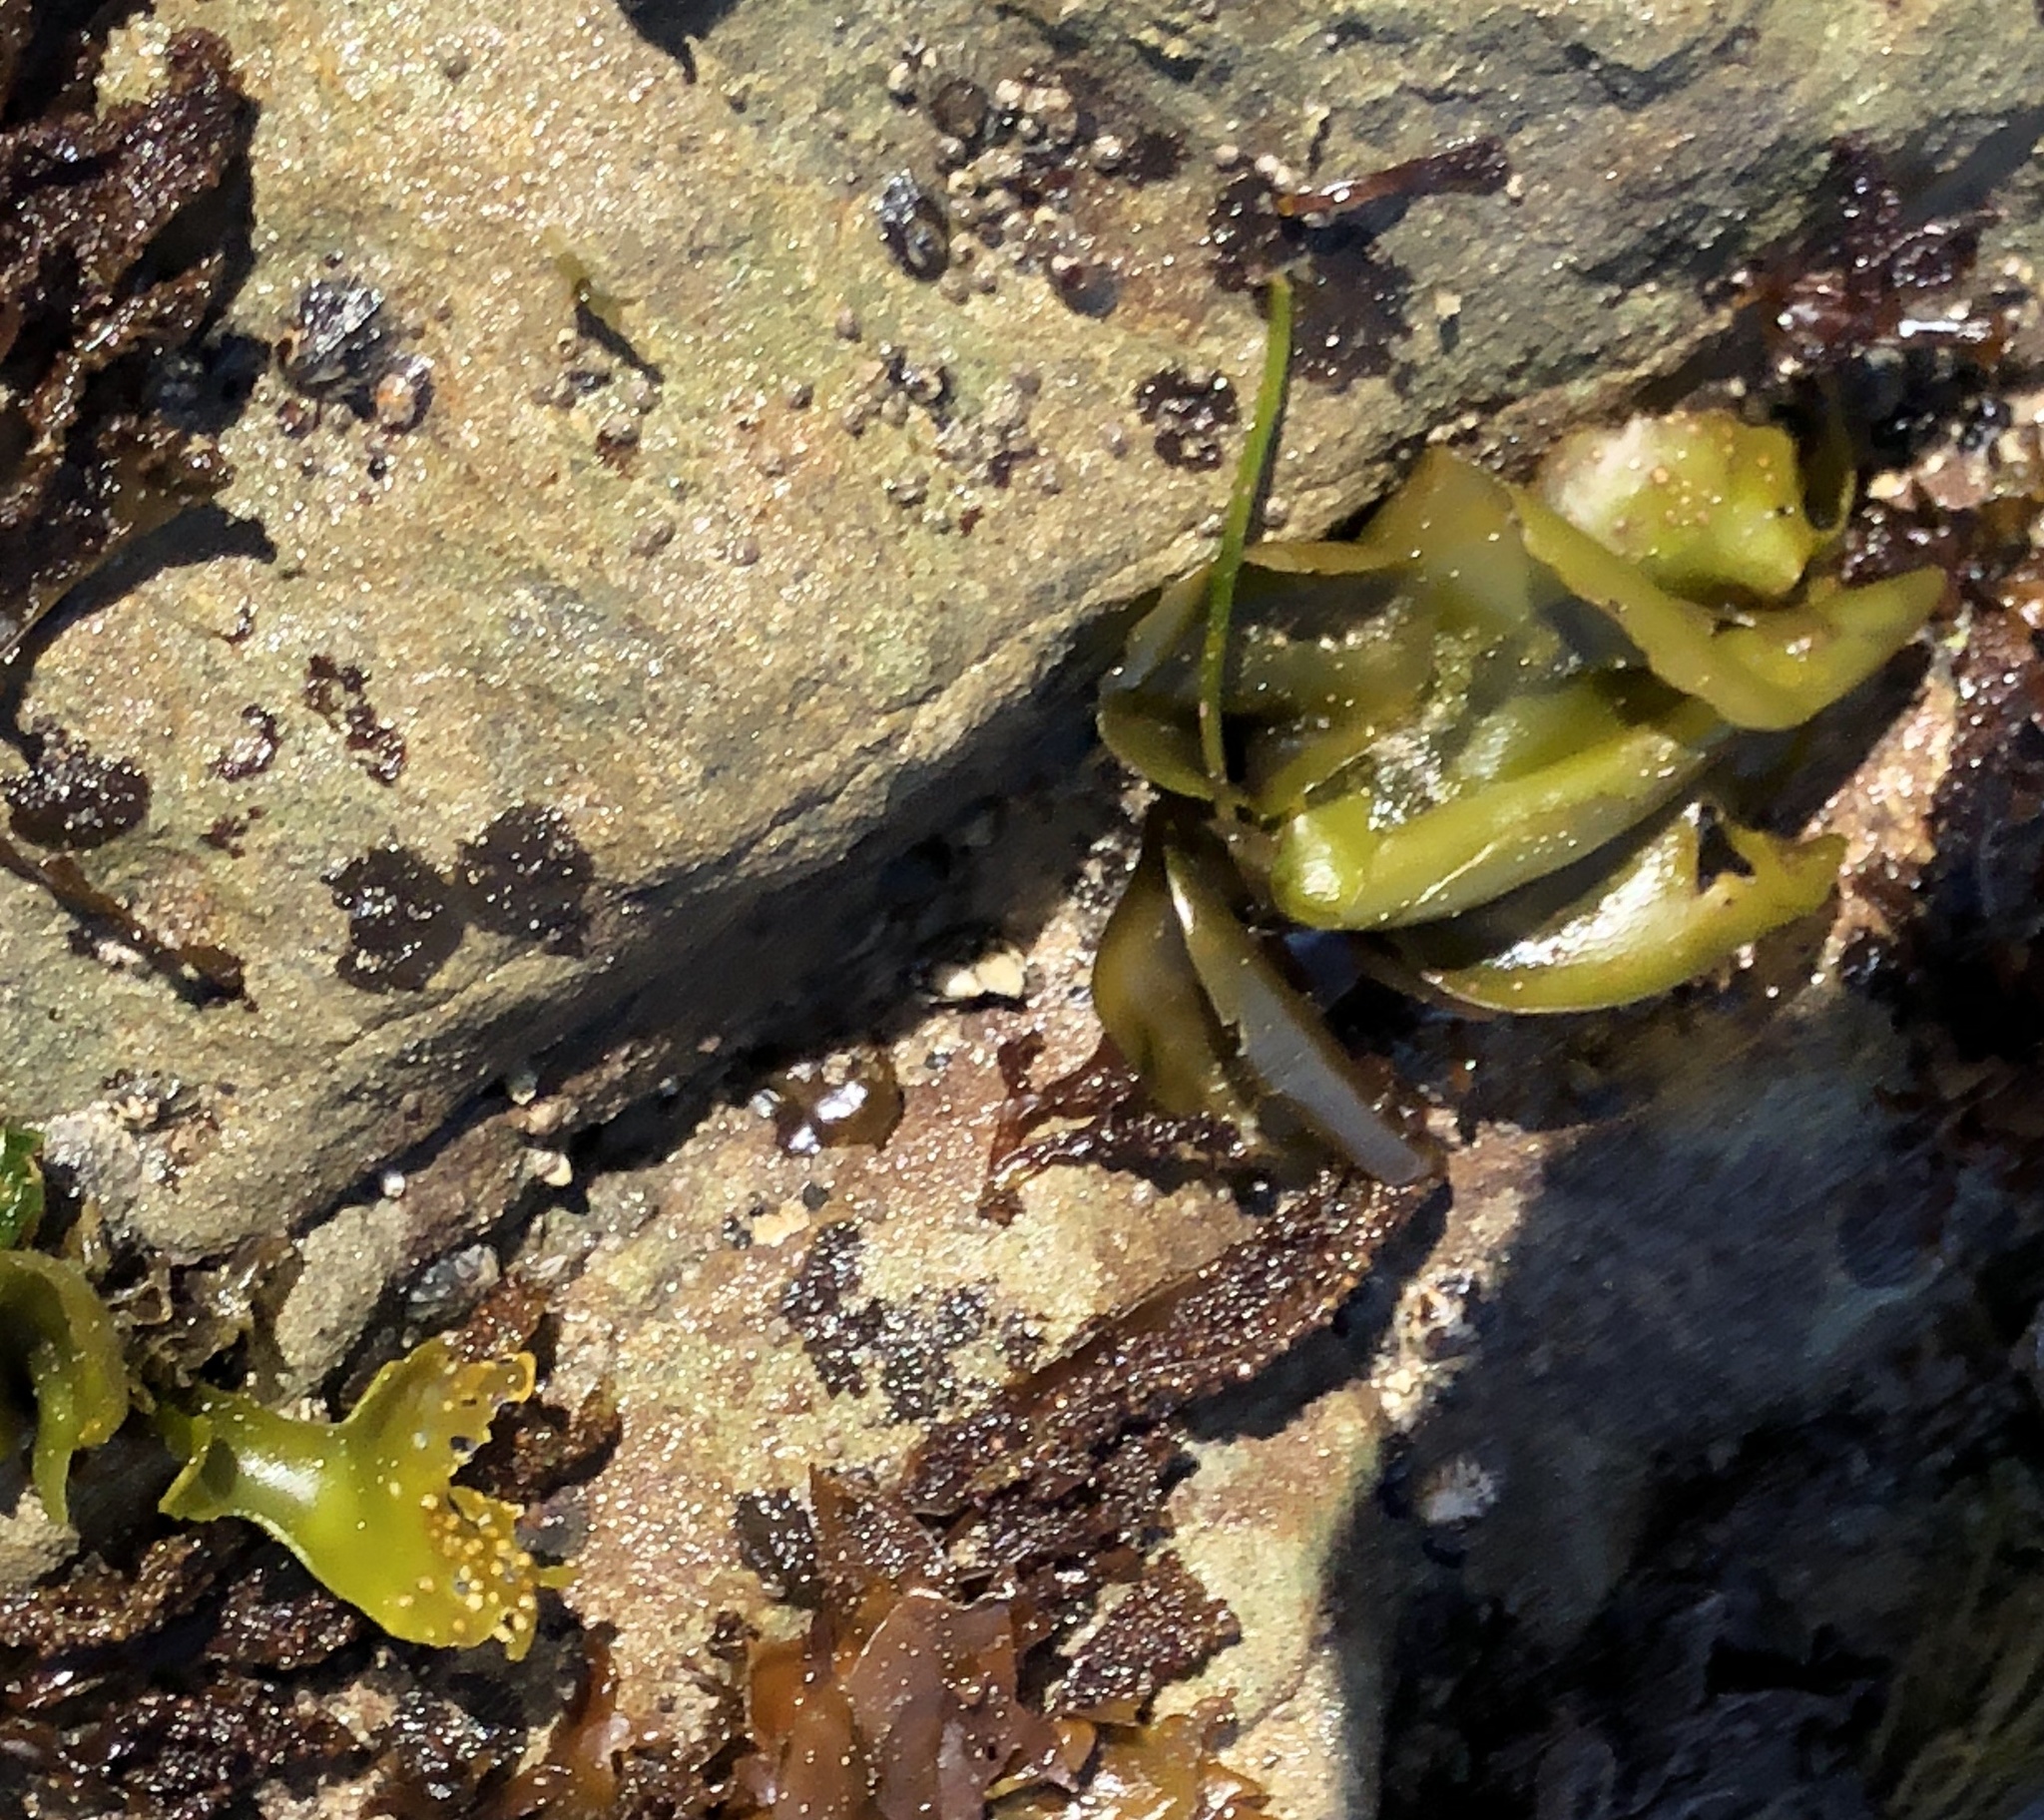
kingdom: Plantae
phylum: Rhodophyta
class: Florideophyceae
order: Gigartinales
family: Gigartinaceae
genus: Mazzaella
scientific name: Mazzaella flaccida
